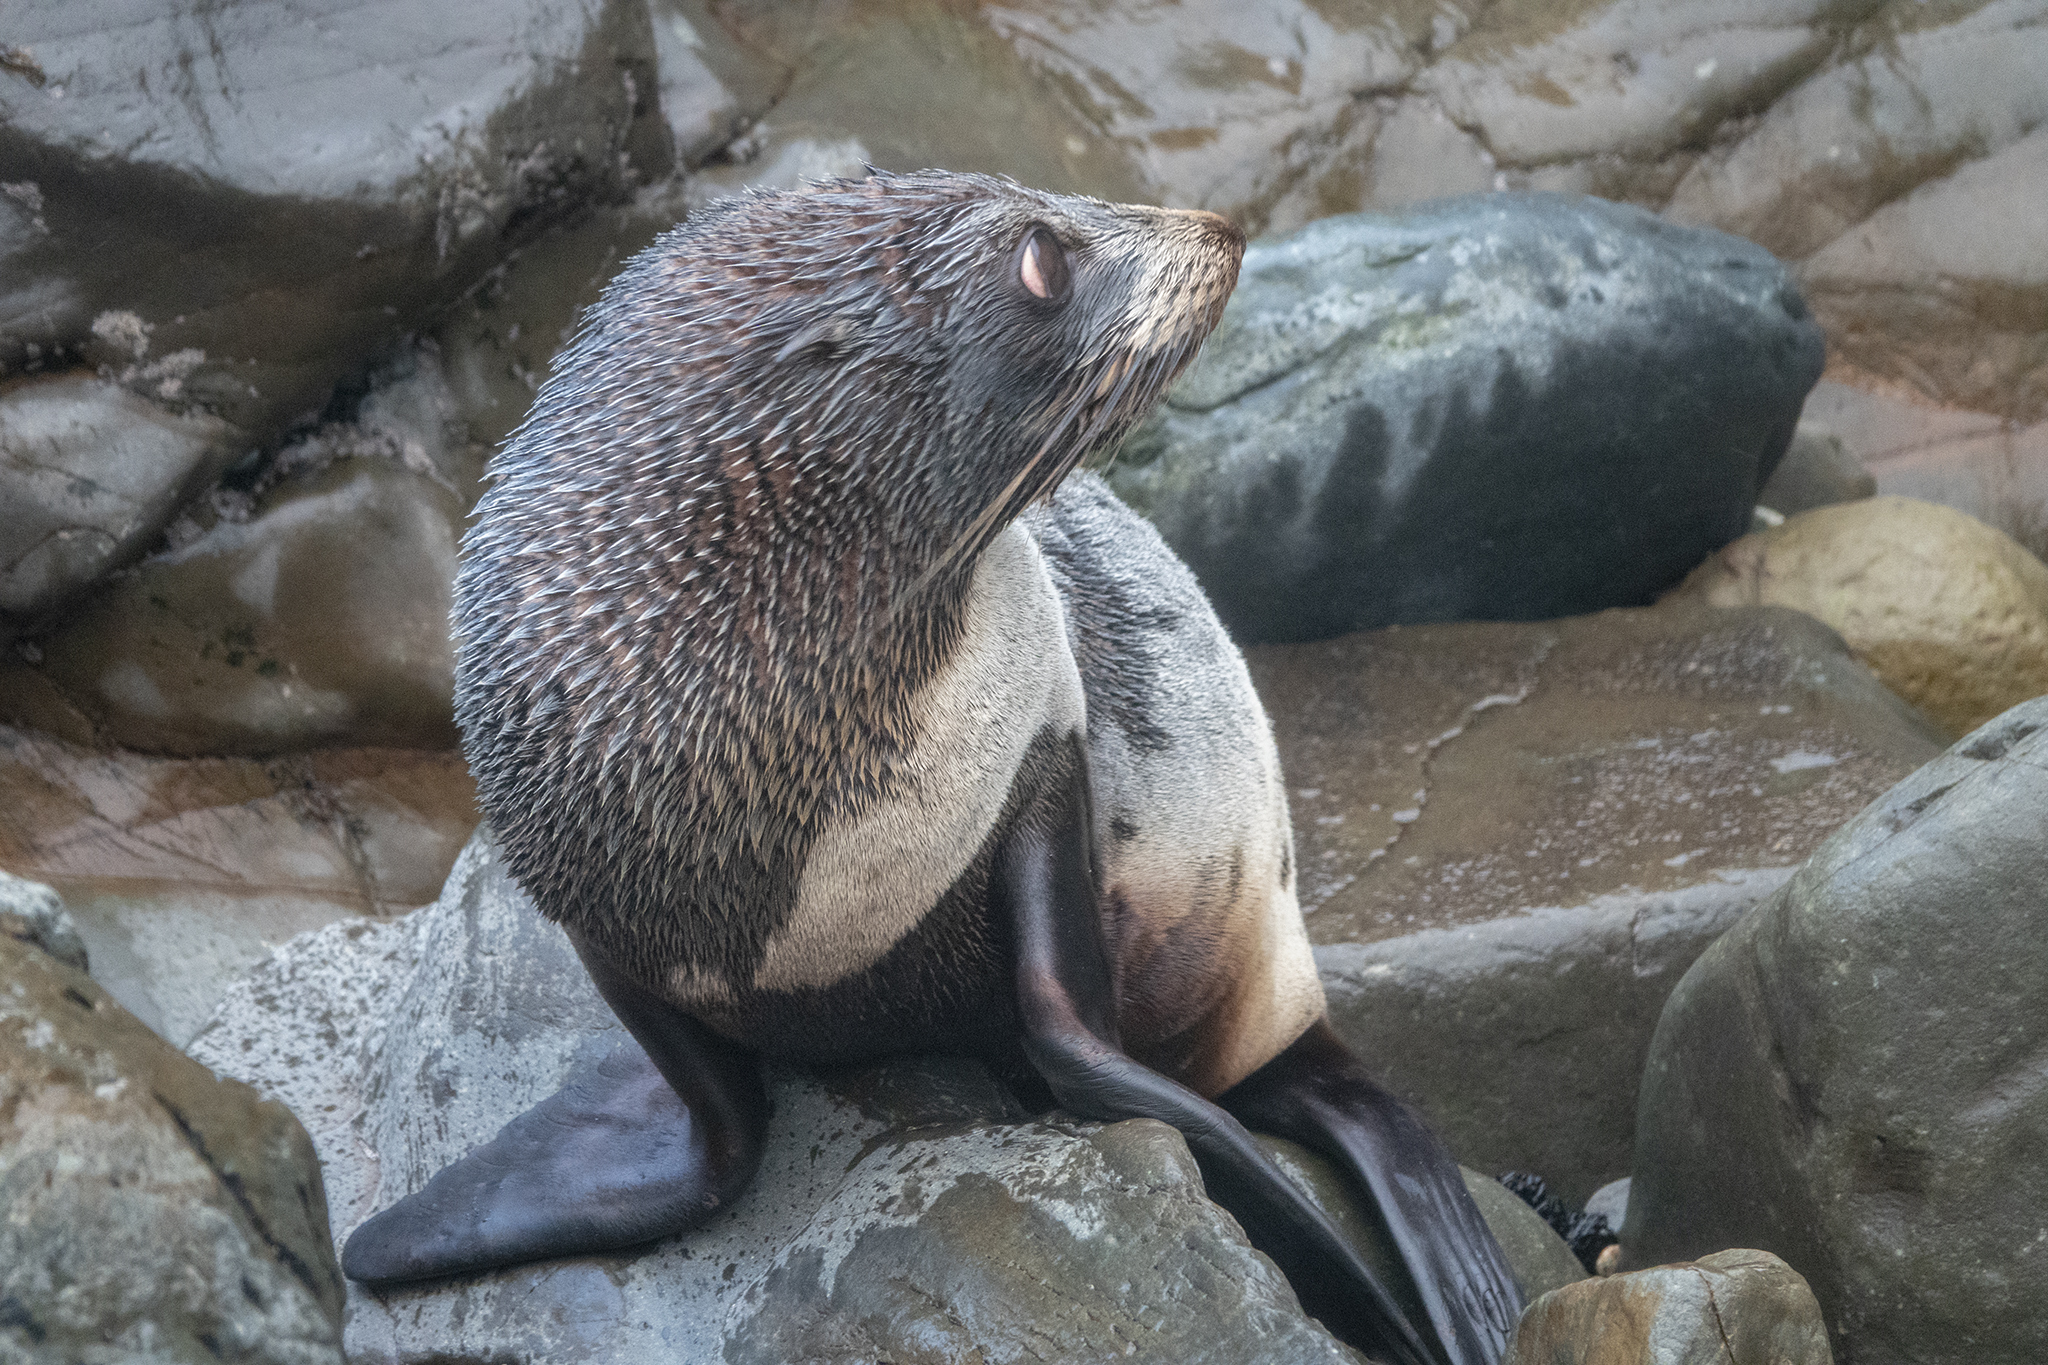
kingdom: Animalia
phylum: Chordata
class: Mammalia
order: Carnivora
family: Otariidae
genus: Arctocephalus
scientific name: Arctocephalus forsteri
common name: New zealand fur seal
